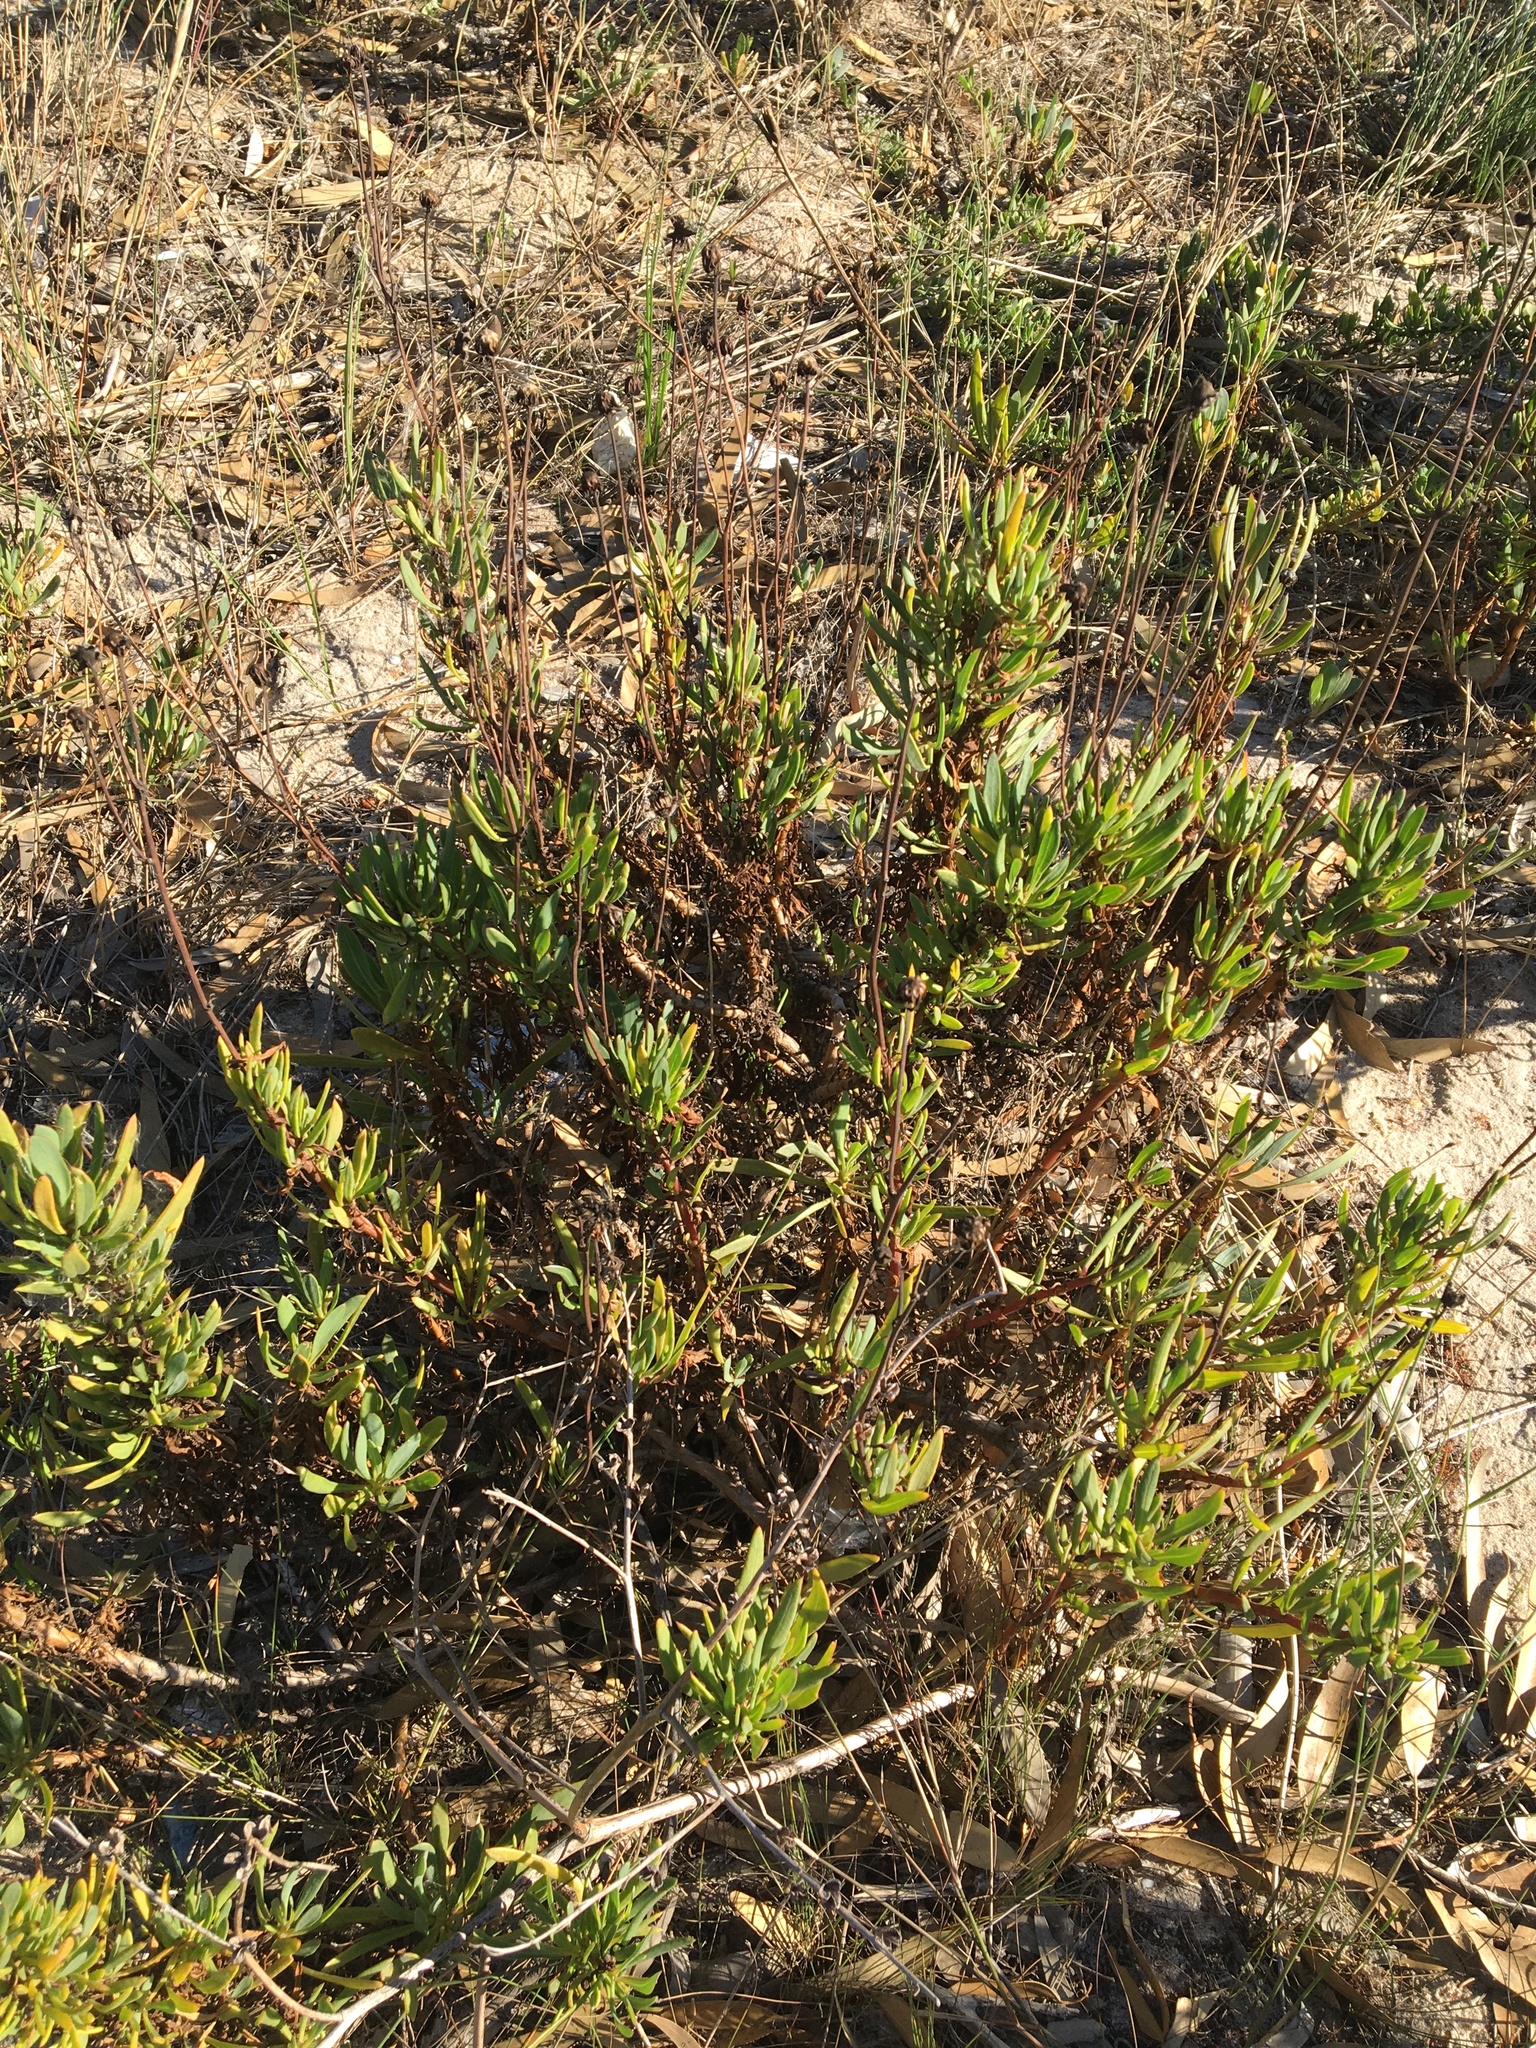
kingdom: Plantae
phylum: Tracheophyta
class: Magnoliopsida
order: Asterales
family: Asteraceae
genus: Othonna
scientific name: Othonna coronopifolia
